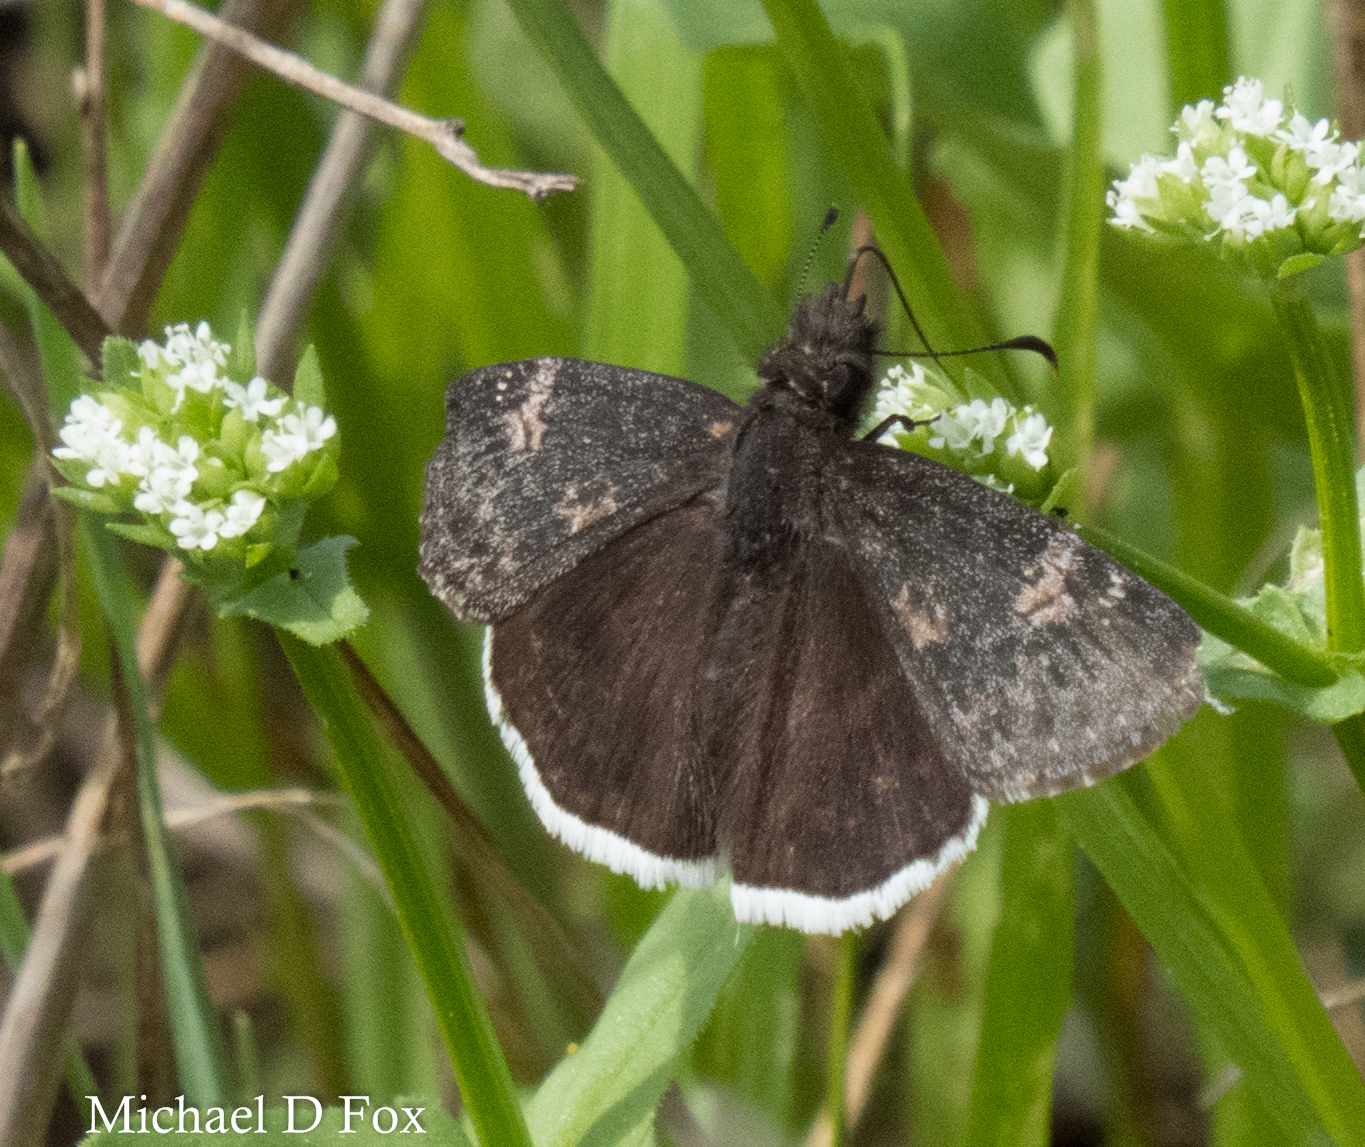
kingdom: Animalia
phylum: Arthropoda
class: Insecta
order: Lepidoptera
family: Hesperiidae
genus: Erynnis
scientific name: Erynnis funeralis
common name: Funereal duskywing
